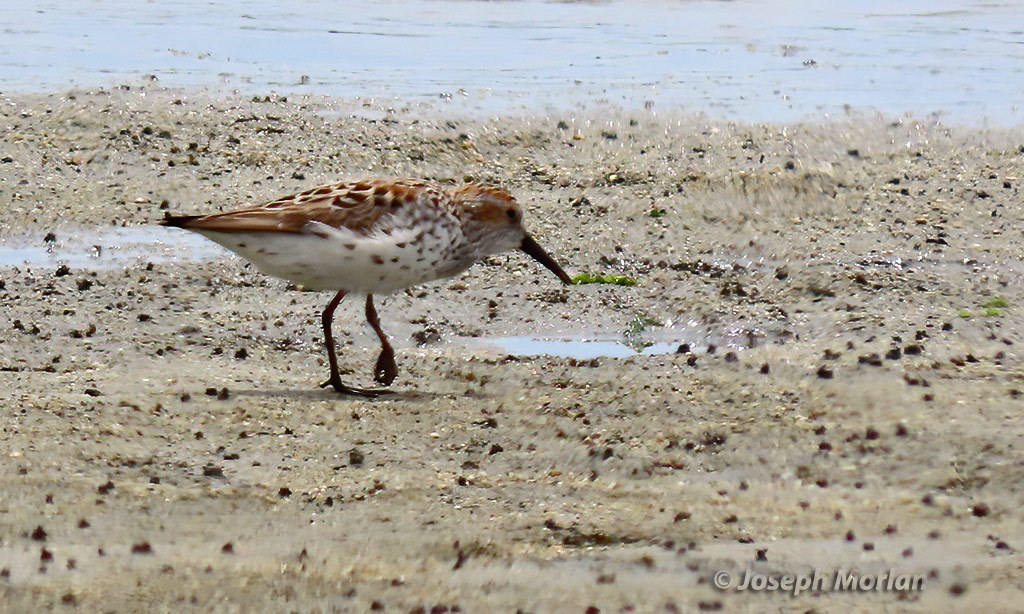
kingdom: Animalia
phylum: Chordata
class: Aves
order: Charadriiformes
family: Scolopacidae
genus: Calidris
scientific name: Calidris mauri
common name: Western sandpiper
